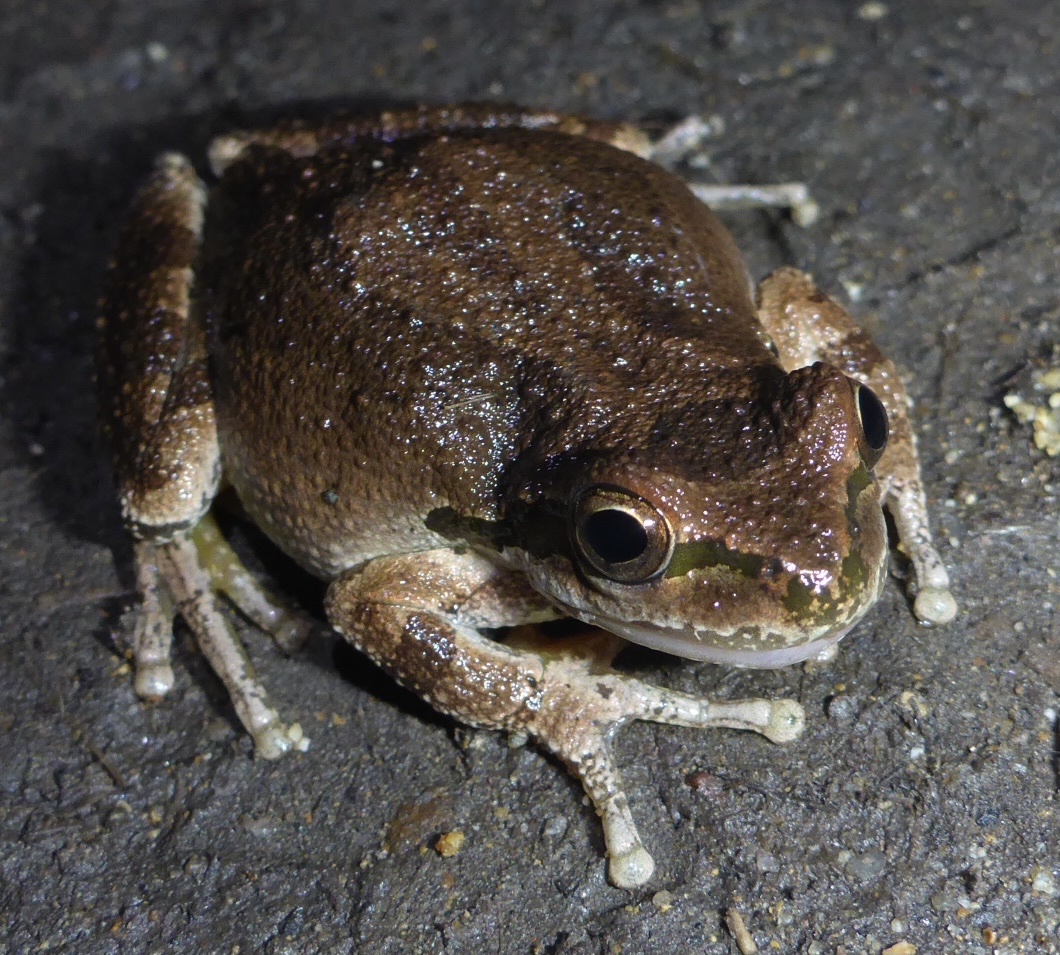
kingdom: Animalia
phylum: Chordata
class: Amphibia
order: Anura
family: Hylidae
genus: Pseudacris
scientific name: Pseudacris regilla
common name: Pacific chorus frog
